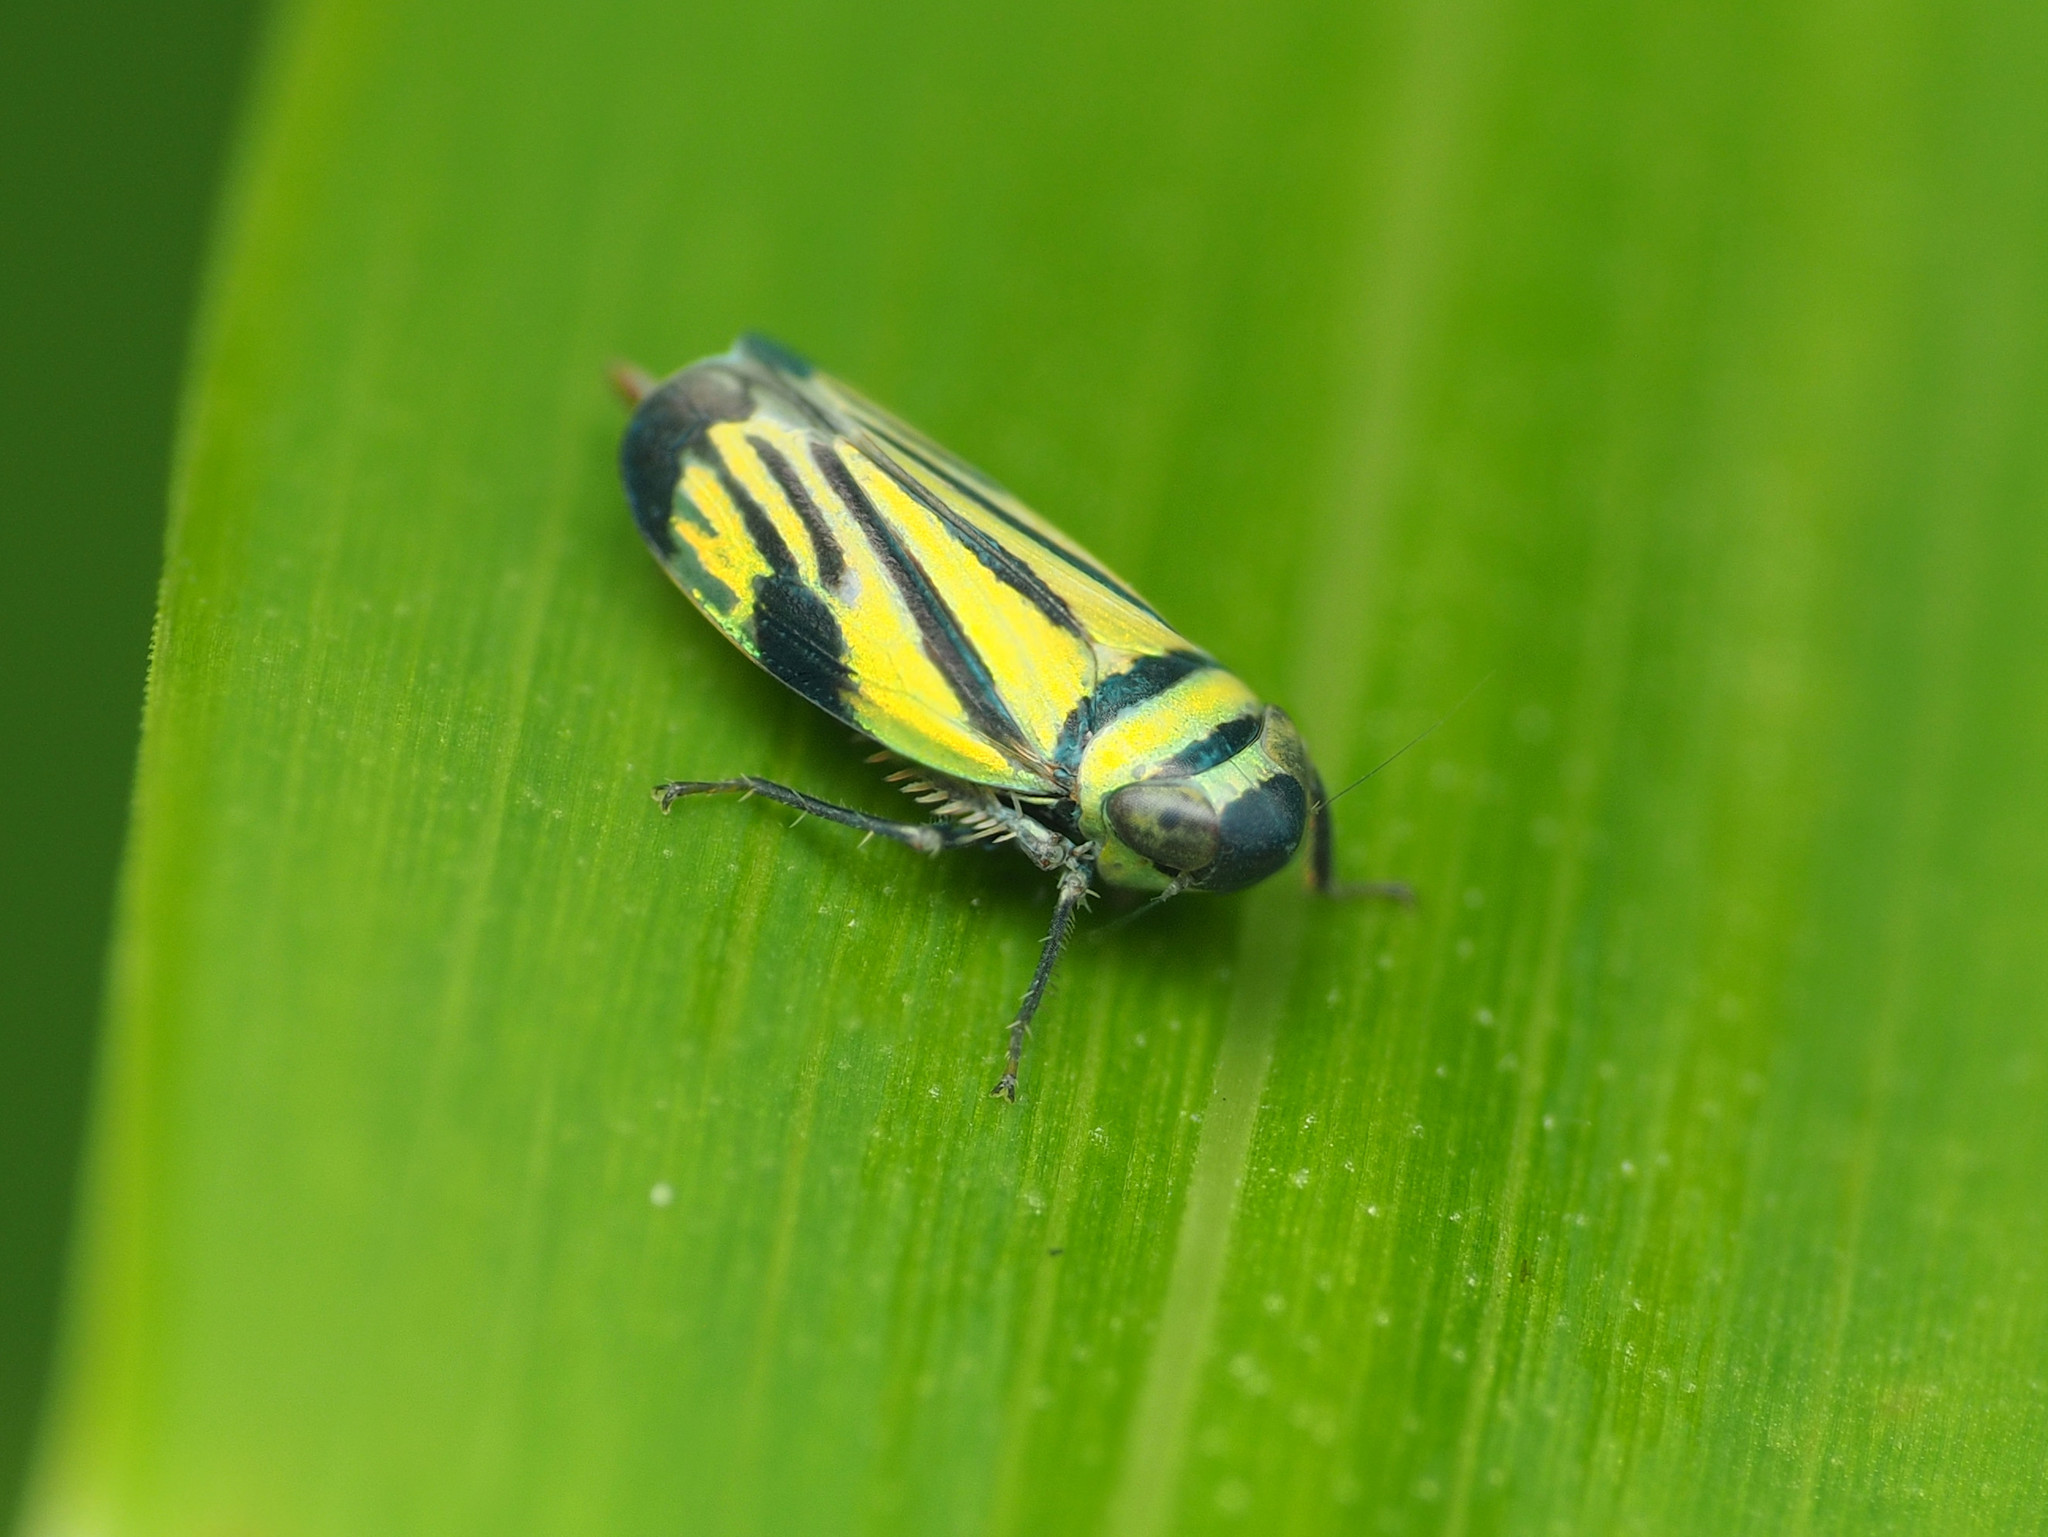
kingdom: Animalia
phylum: Arthropoda
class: Insecta
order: Hemiptera
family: Cicadellidae
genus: Stirellus
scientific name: Stirellus bicolor
